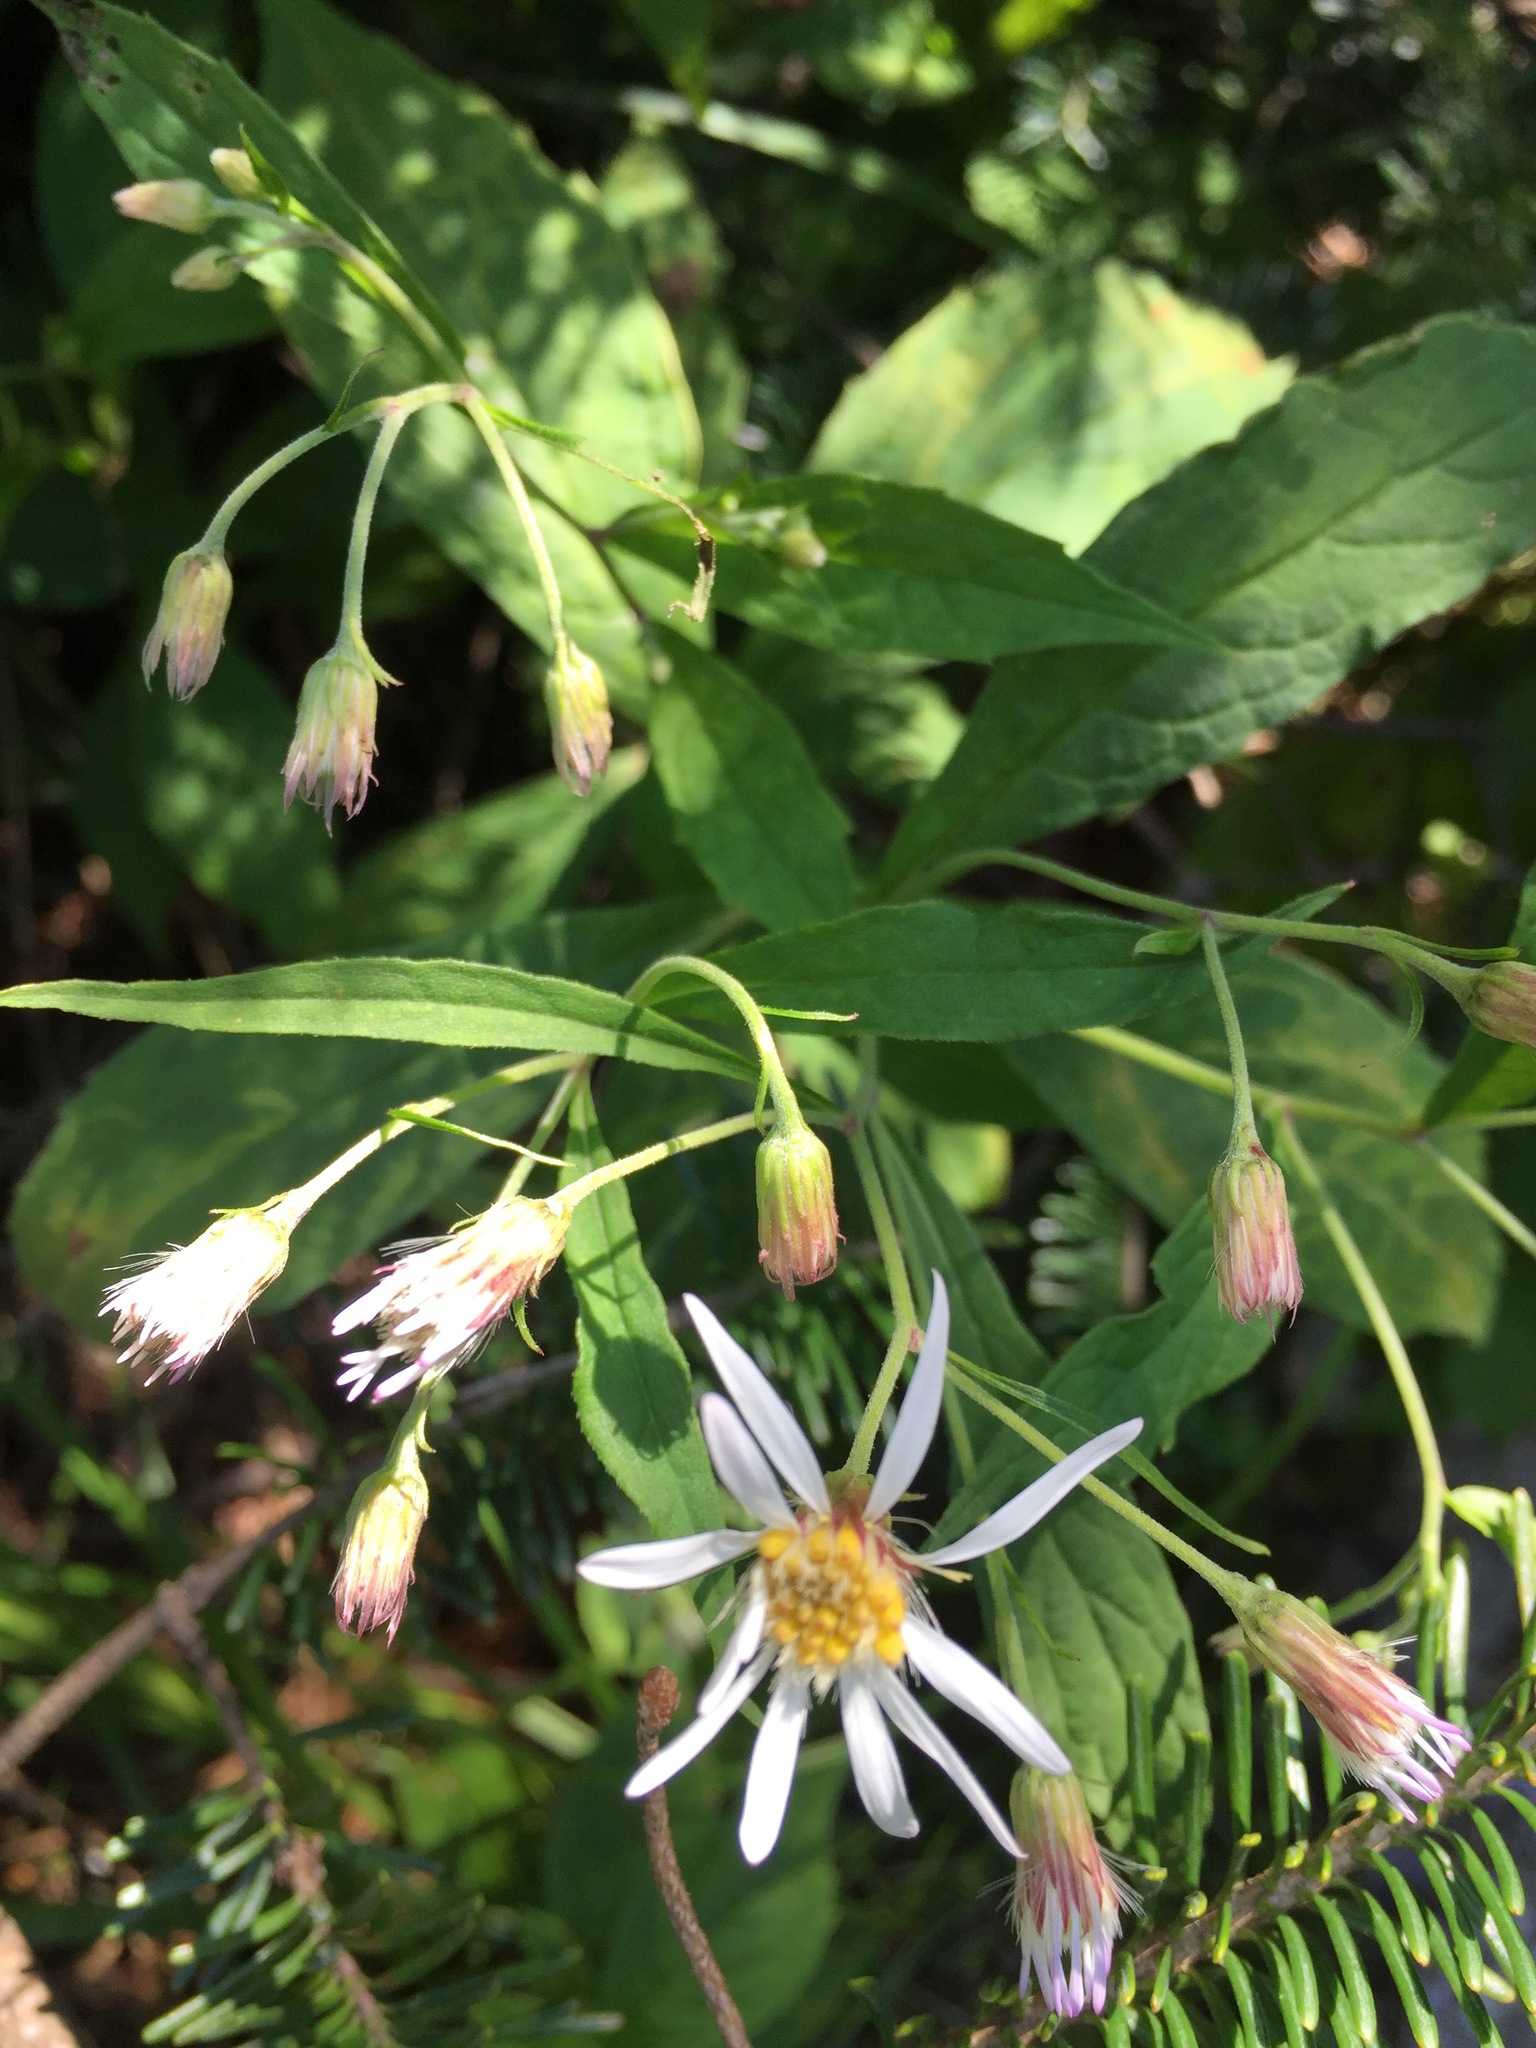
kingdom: Plantae
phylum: Tracheophyta
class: Magnoliopsida
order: Asterales
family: Asteraceae
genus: Oclemena
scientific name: Oclemena acuminata
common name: Mountain aster
